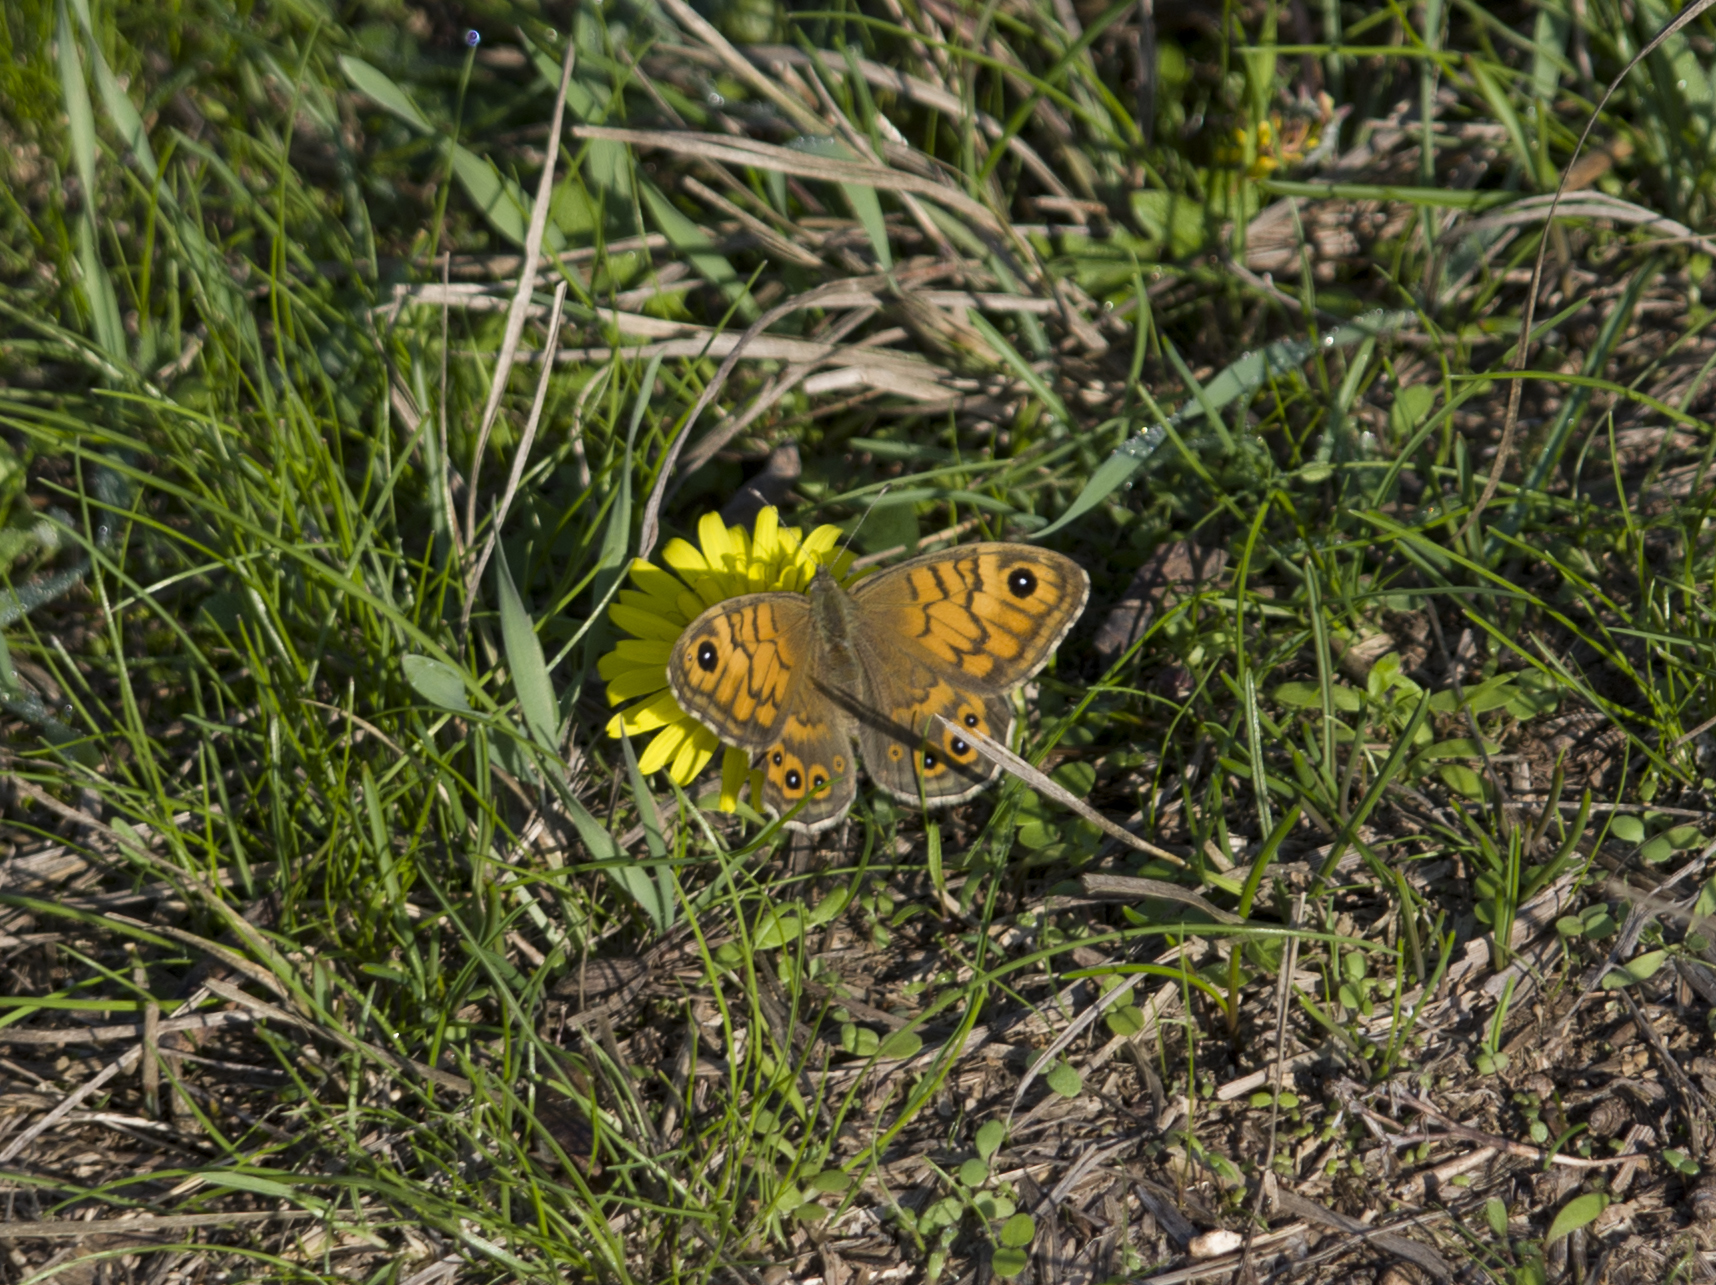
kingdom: Animalia
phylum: Arthropoda
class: Insecta
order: Lepidoptera
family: Nymphalidae
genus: Pararge
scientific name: Pararge Lasiommata megera
